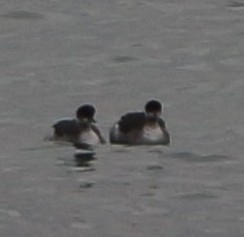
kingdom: Animalia
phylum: Chordata
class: Aves
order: Podicipediformes
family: Podicipedidae
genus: Podiceps
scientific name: Podiceps nigricollis
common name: Black-necked grebe
